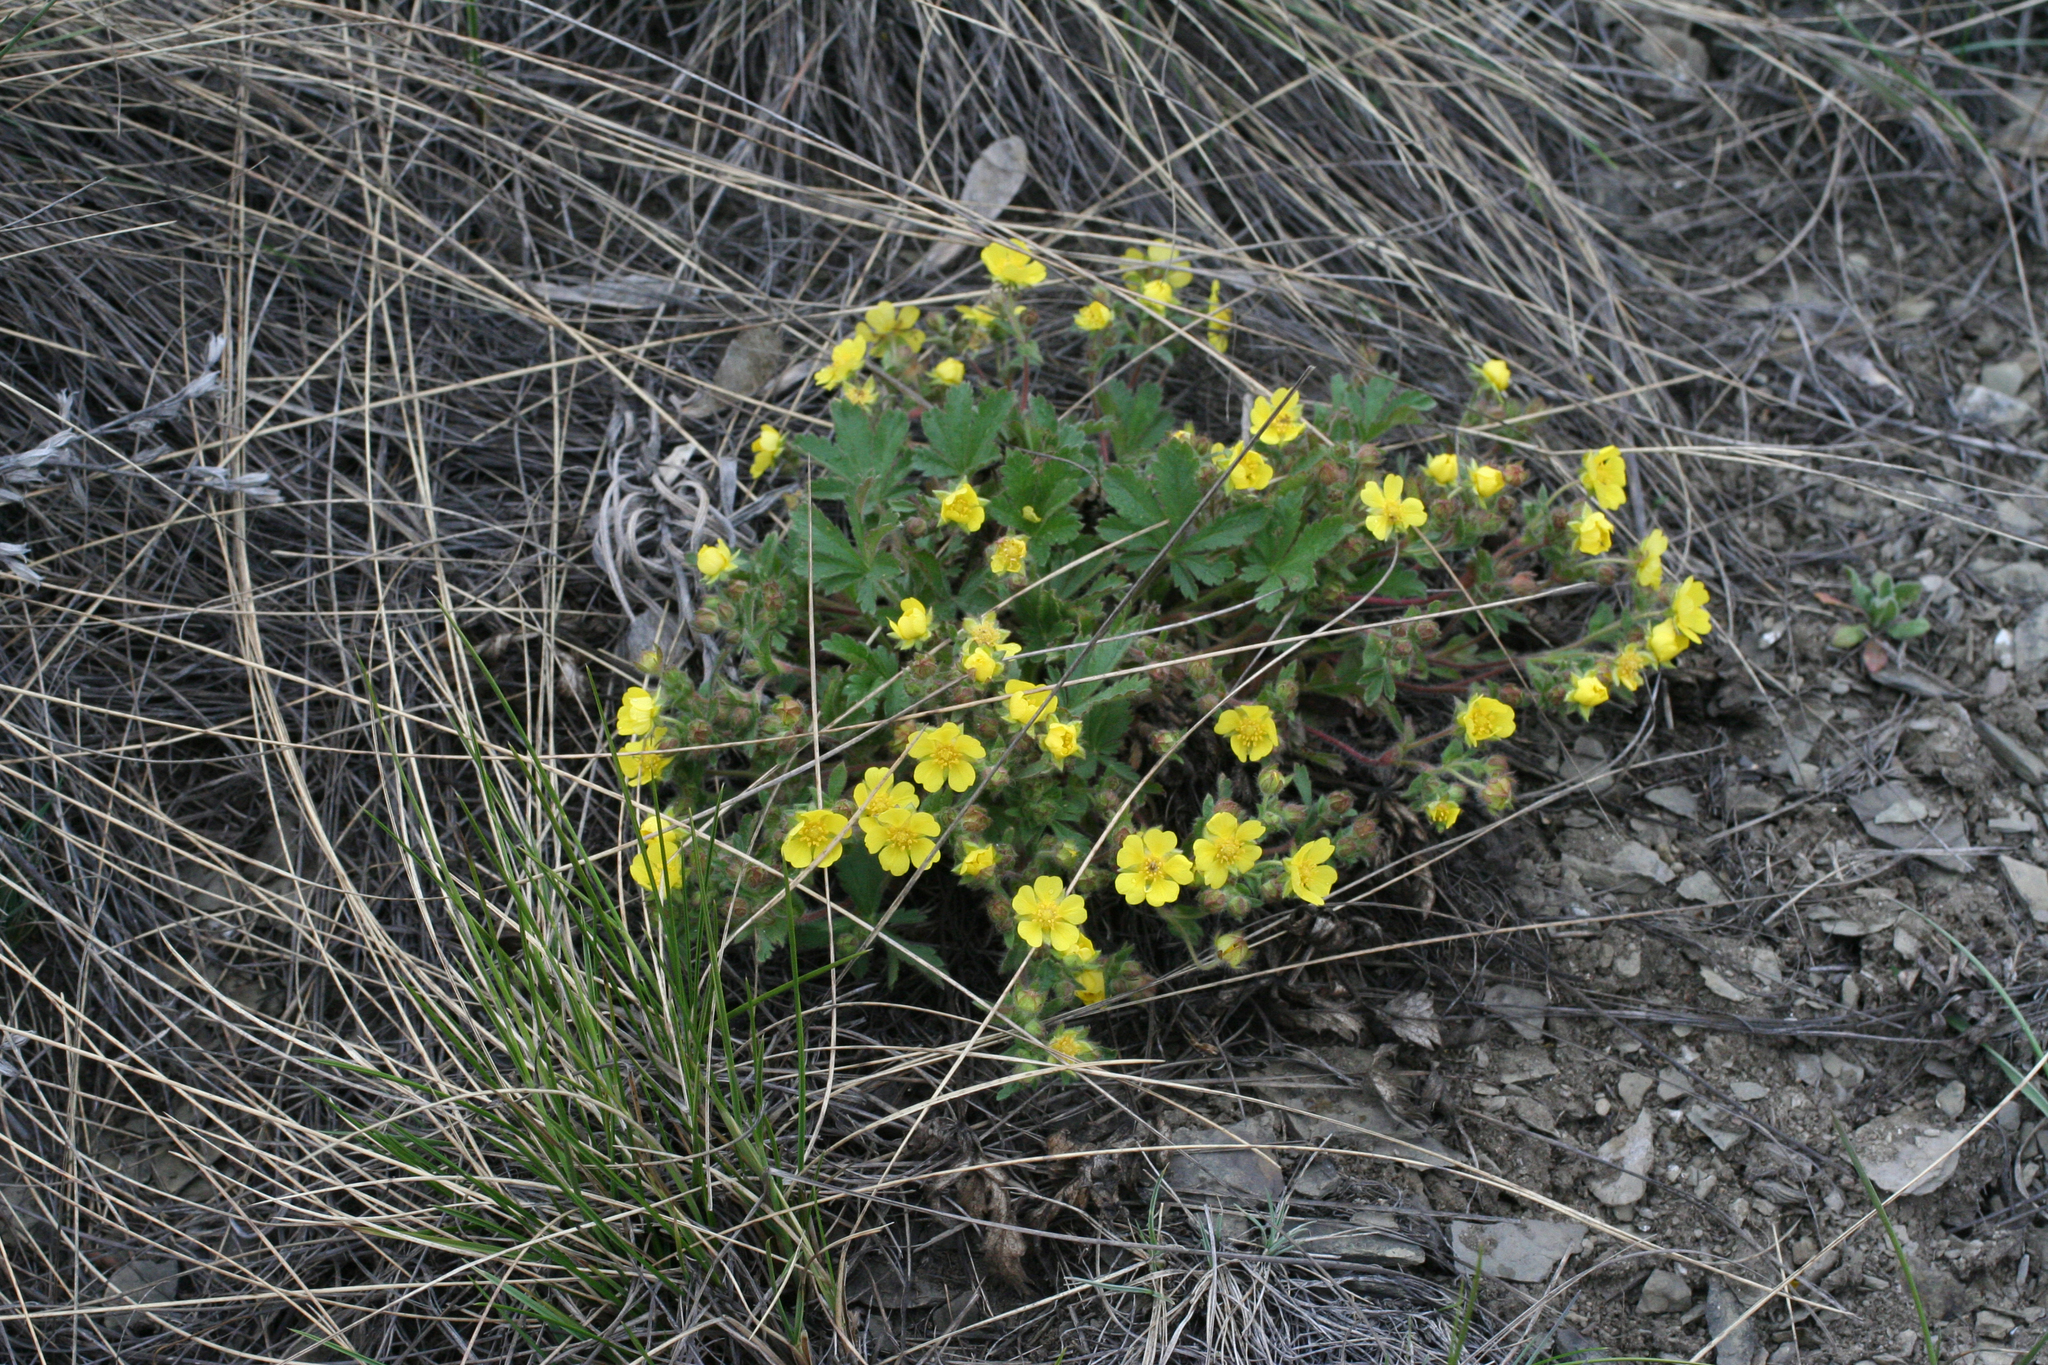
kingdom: Plantae
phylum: Tracheophyta
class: Magnoliopsida
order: Rosales
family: Rosaceae
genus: Potentilla
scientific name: Potentilla humifusa
